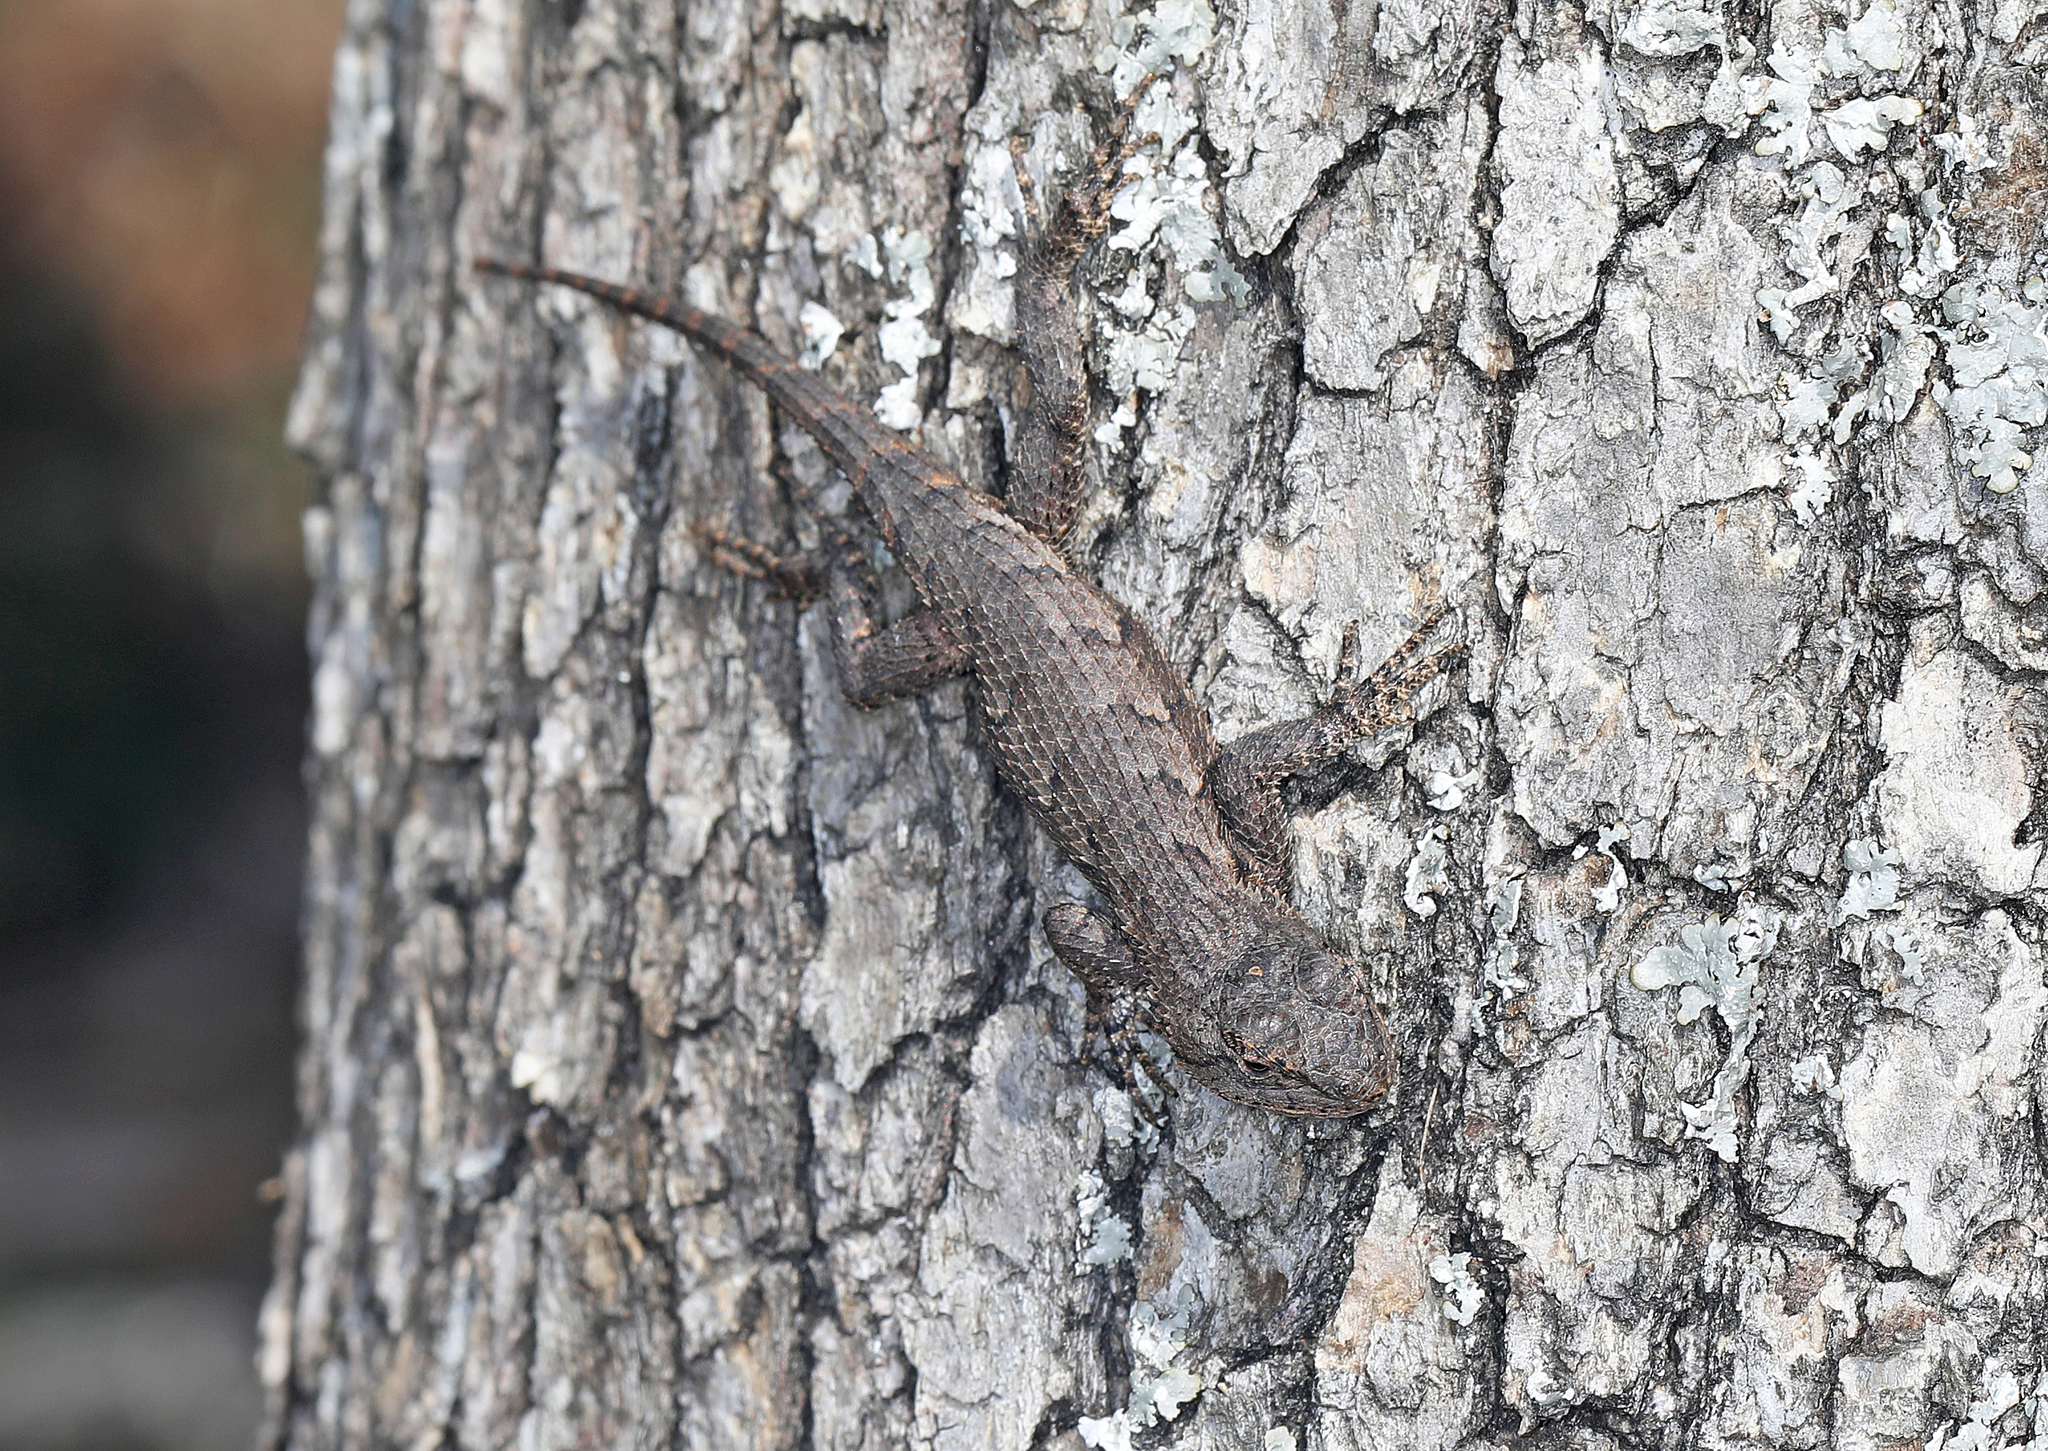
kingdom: Animalia
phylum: Chordata
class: Squamata
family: Phrynosomatidae
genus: Sceloporus
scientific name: Sceloporus undulatus
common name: Eastern fence lizard
